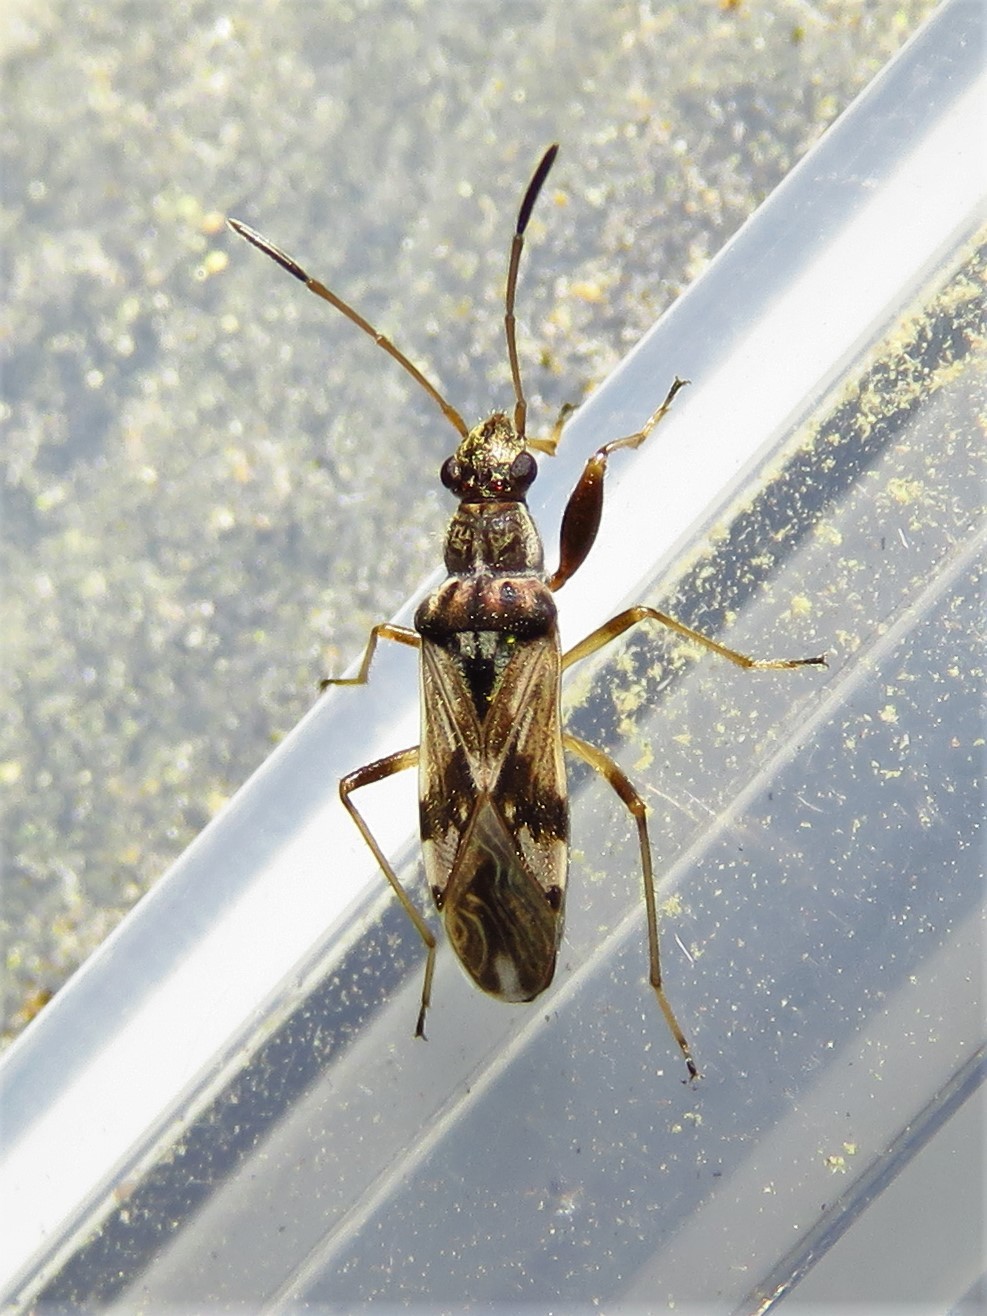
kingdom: Animalia
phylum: Arthropoda
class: Insecta
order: Hemiptera
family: Rhyparochromidae
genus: Neopamera
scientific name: Neopamera bilobata
